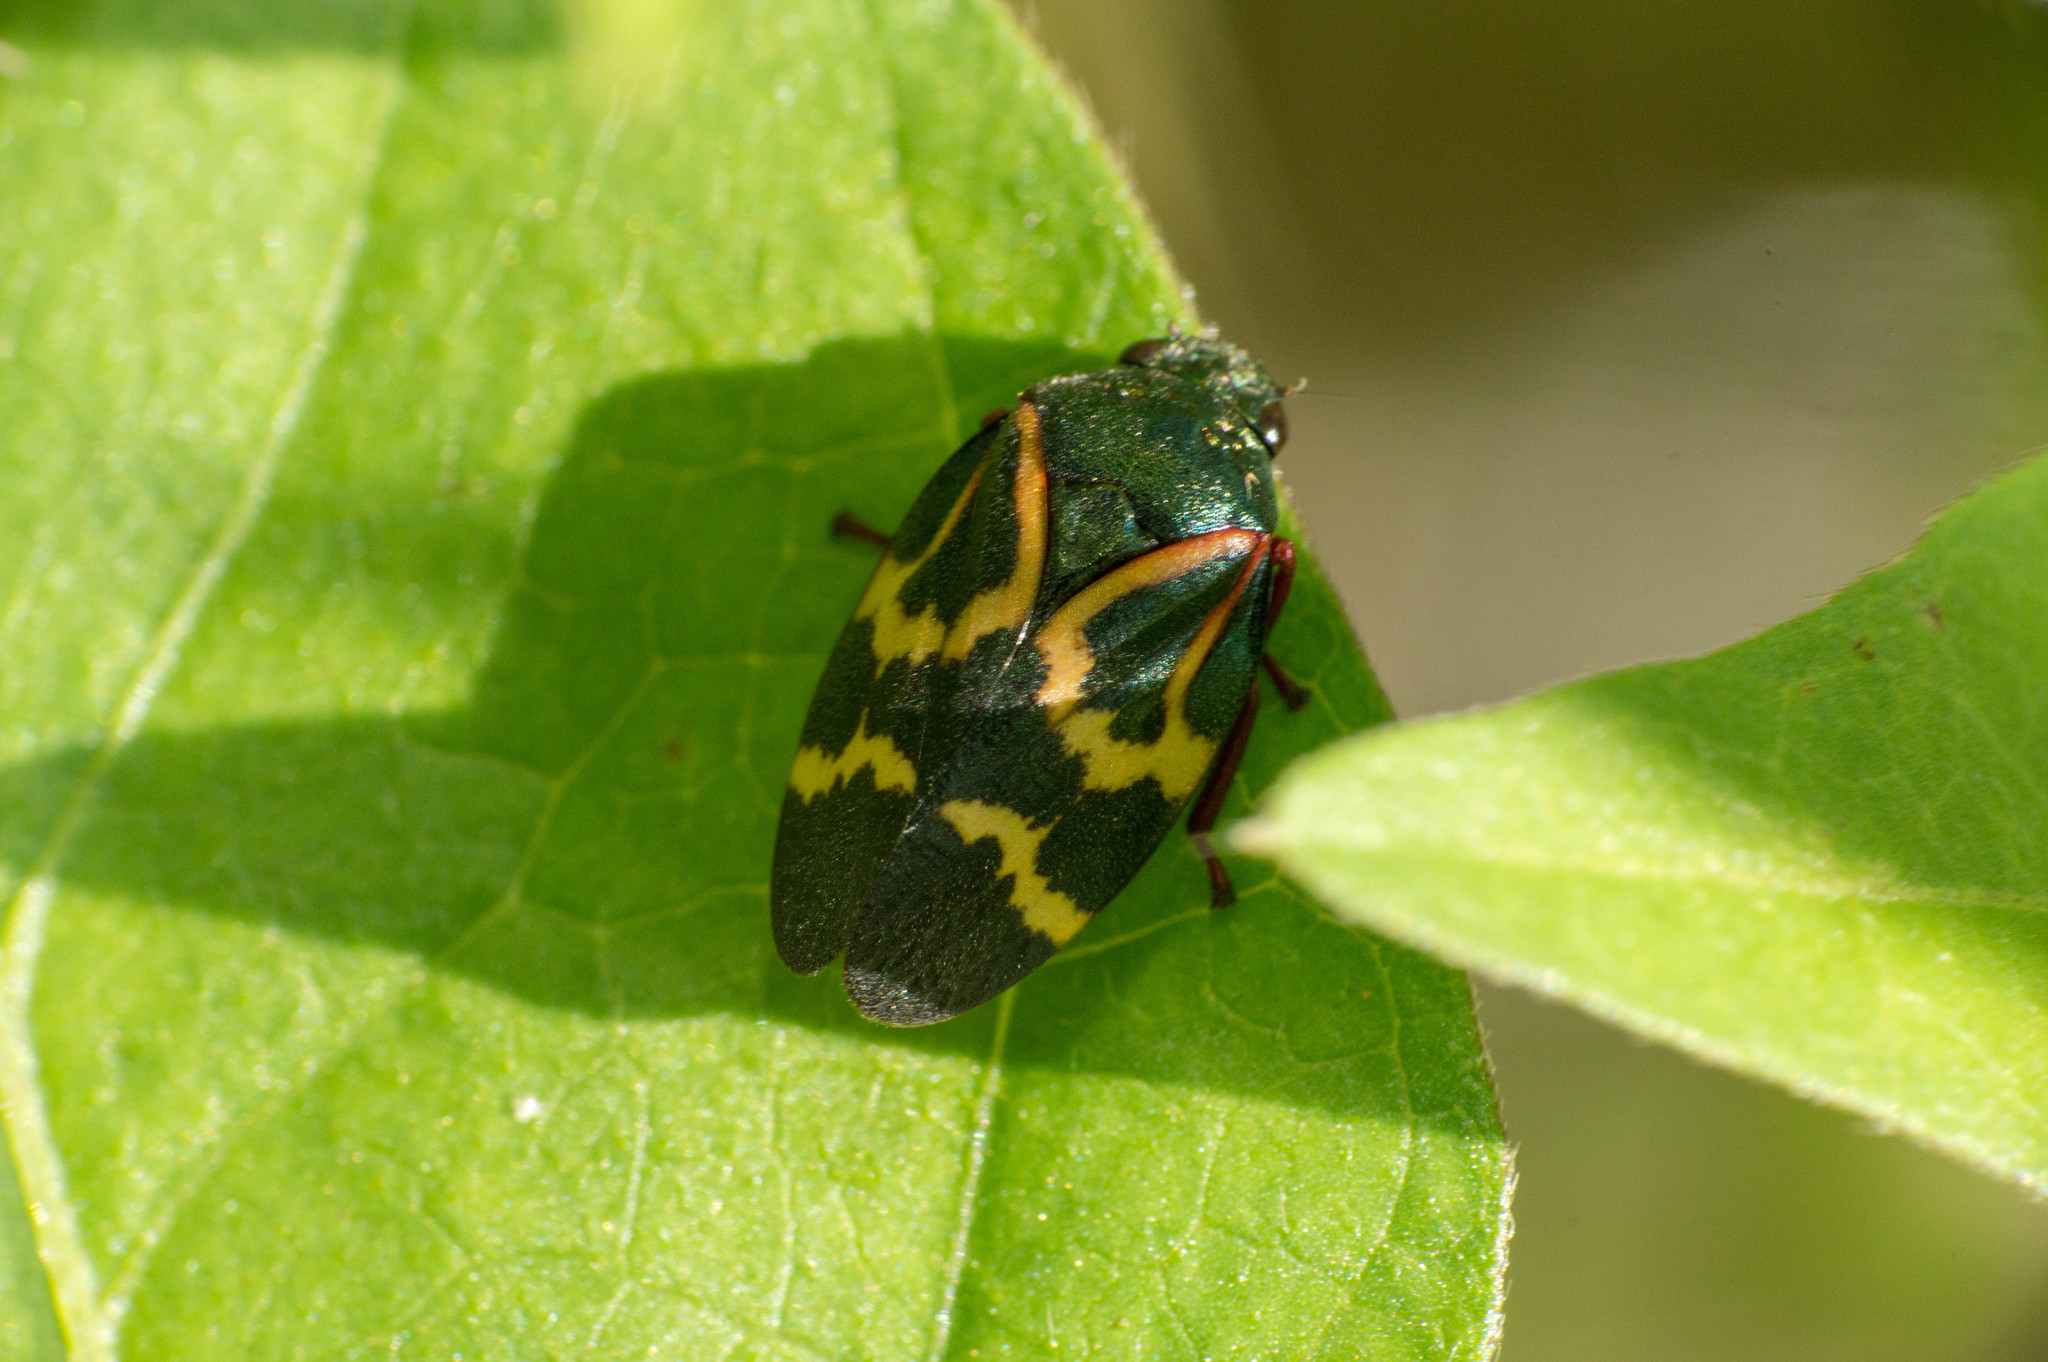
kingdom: Animalia
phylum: Arthropoda
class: Insecta
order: Hemiptera
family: Cercopidae
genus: Deois
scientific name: Deois flexuosa
